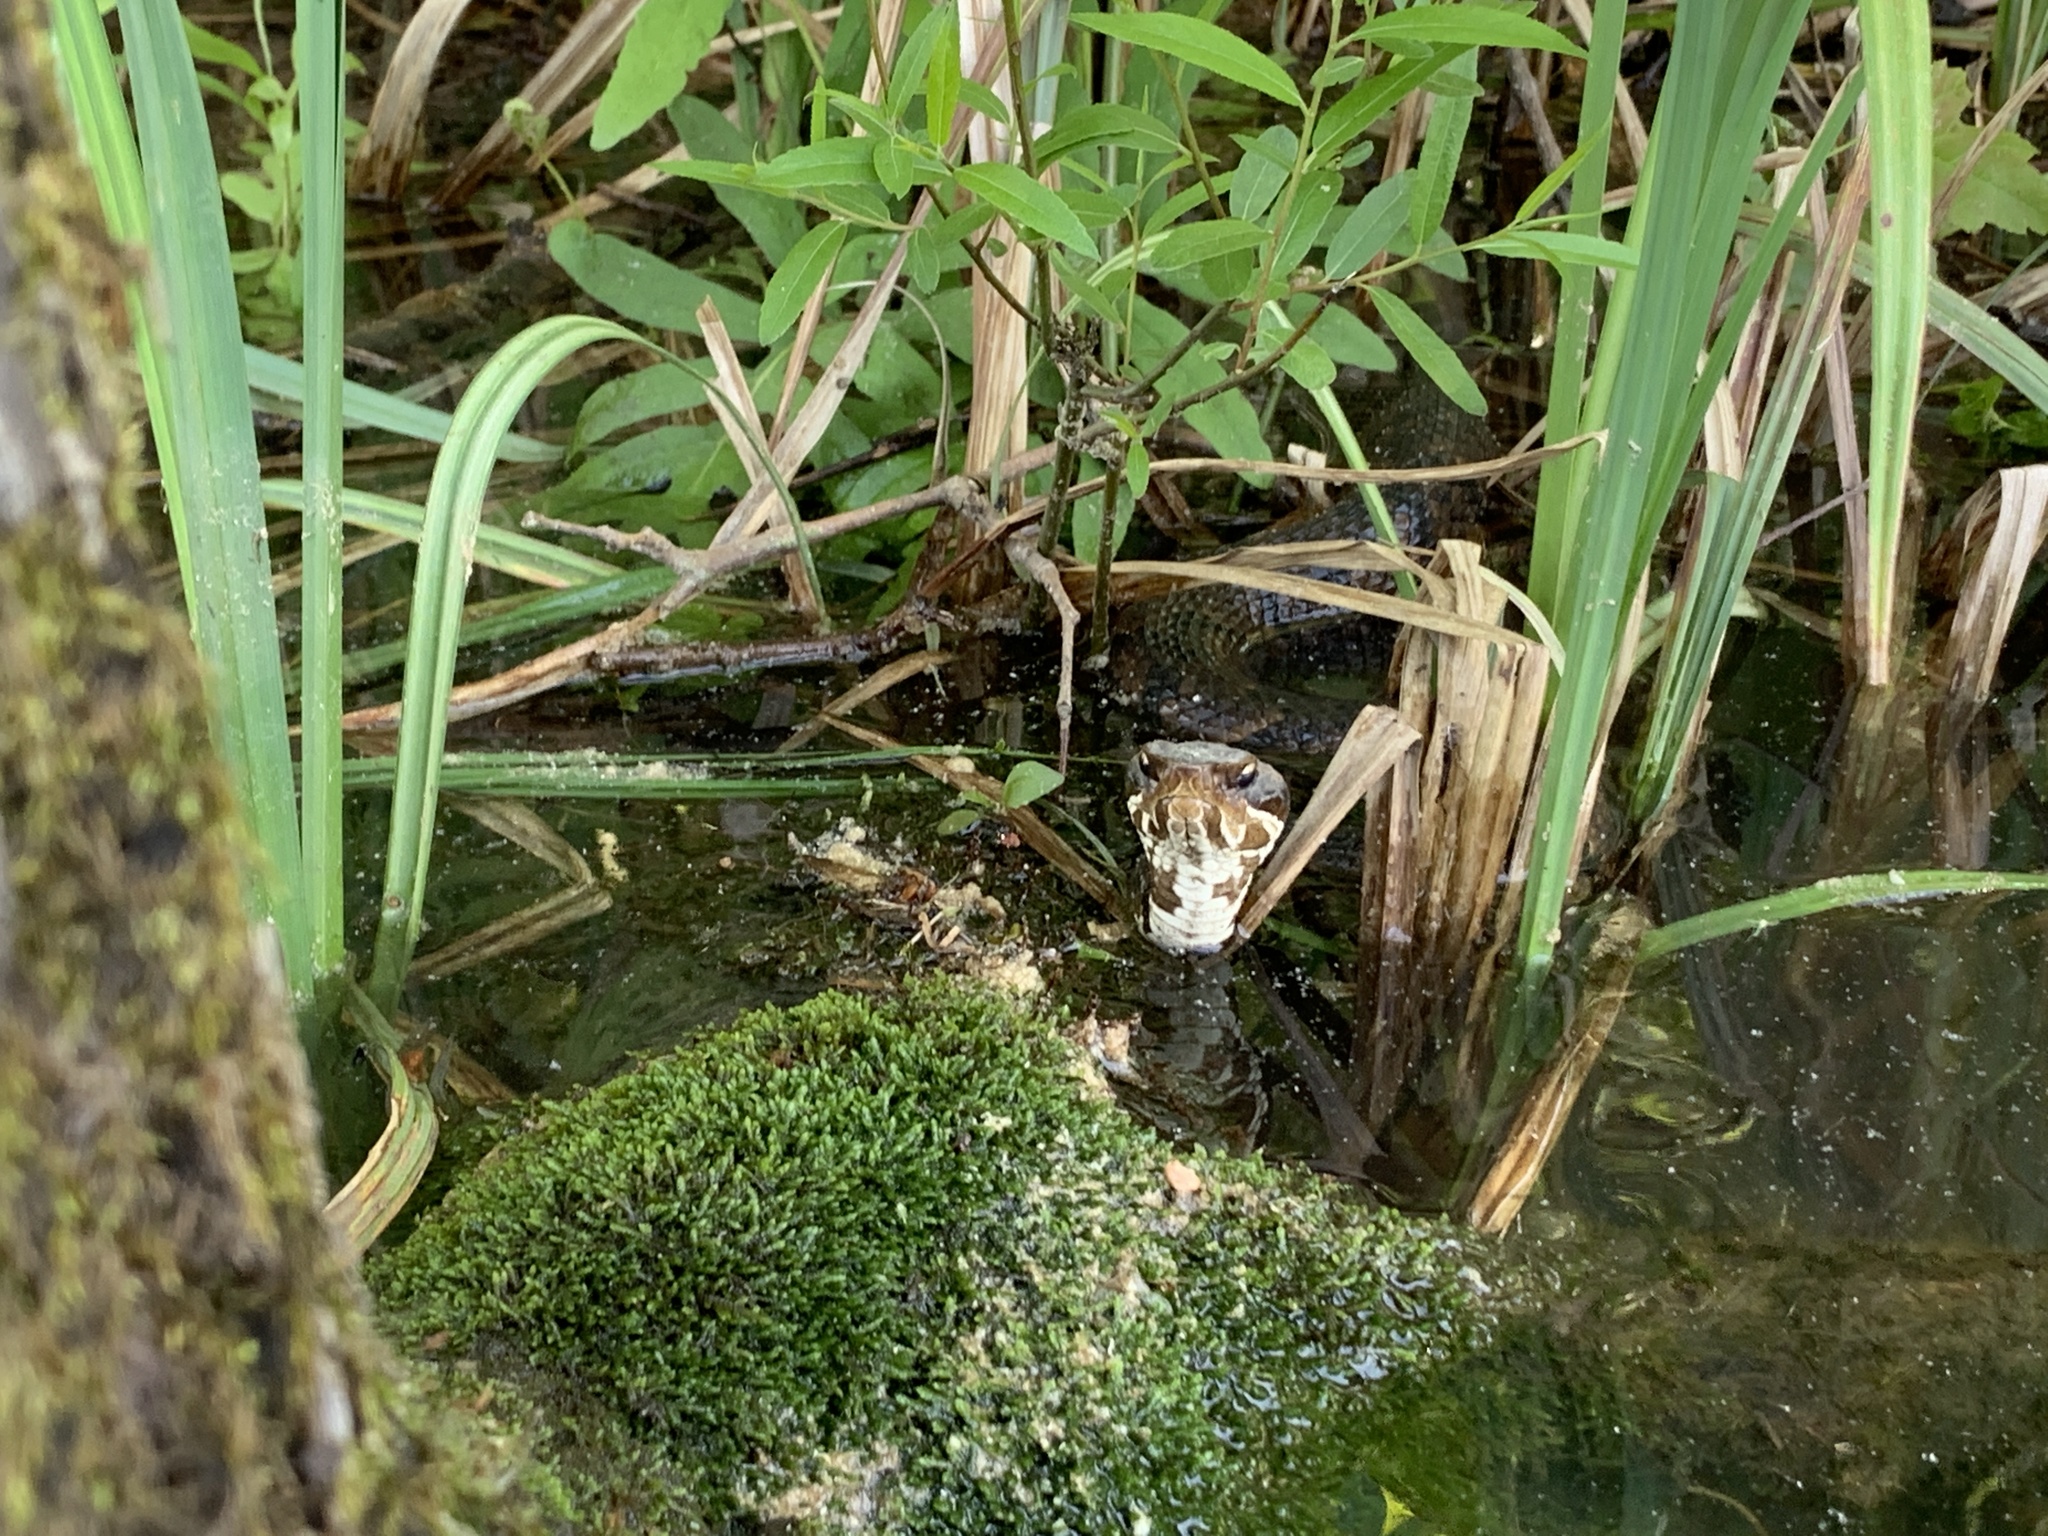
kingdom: Animalia
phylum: Chordata
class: Squamata
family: Viperidae
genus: Agkistrodon
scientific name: Agkistrodon piscivorus
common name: Cottonmouth
